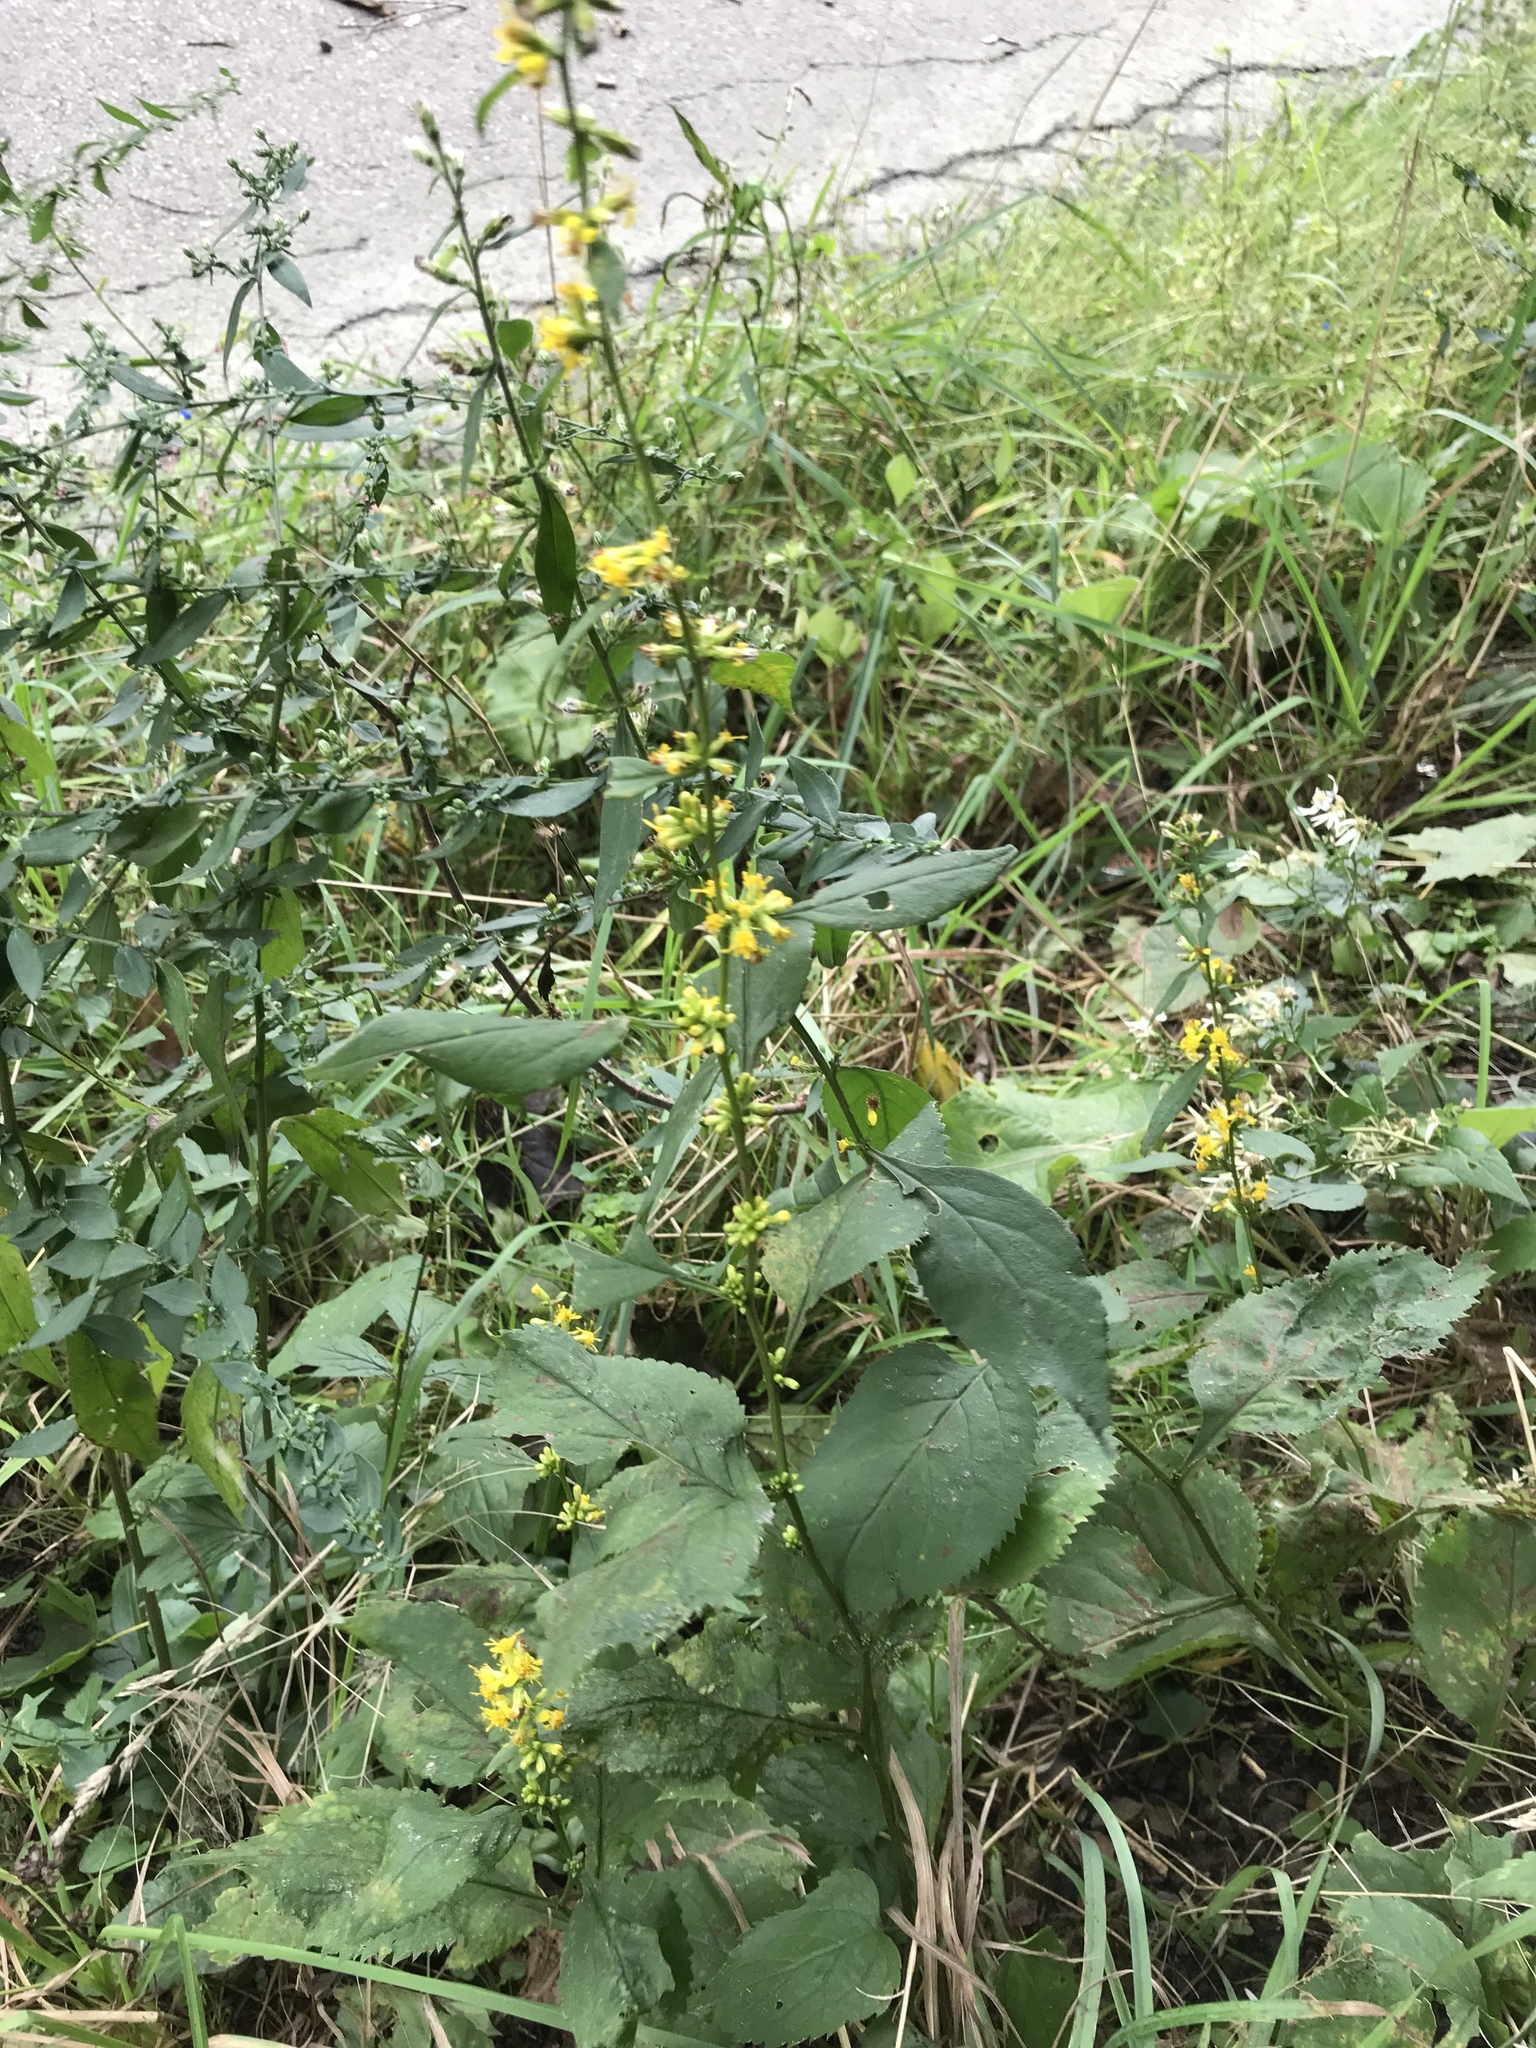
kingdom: Plantae
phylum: Tracheophyta
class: Magnoliopsida
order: Asterales
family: Asteraceae
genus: Solidago
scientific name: Solidago flexicaulis
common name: Zig-zag goldenrod
